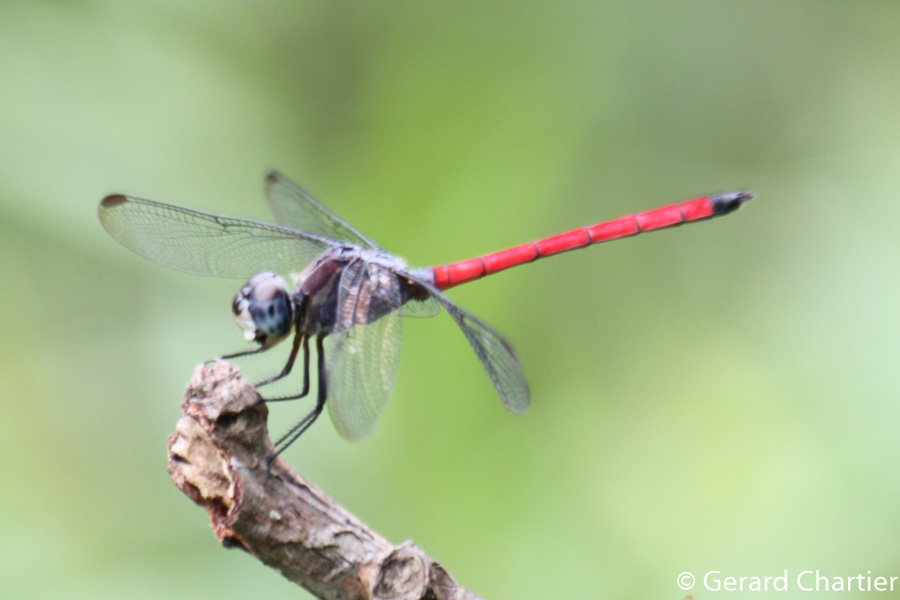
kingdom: Animalia
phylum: Arthropoda
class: Insecta
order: Odonata
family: Libellulidae
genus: Lathrecista
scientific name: Lathrecista asiatica
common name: Scarlet grenadier
